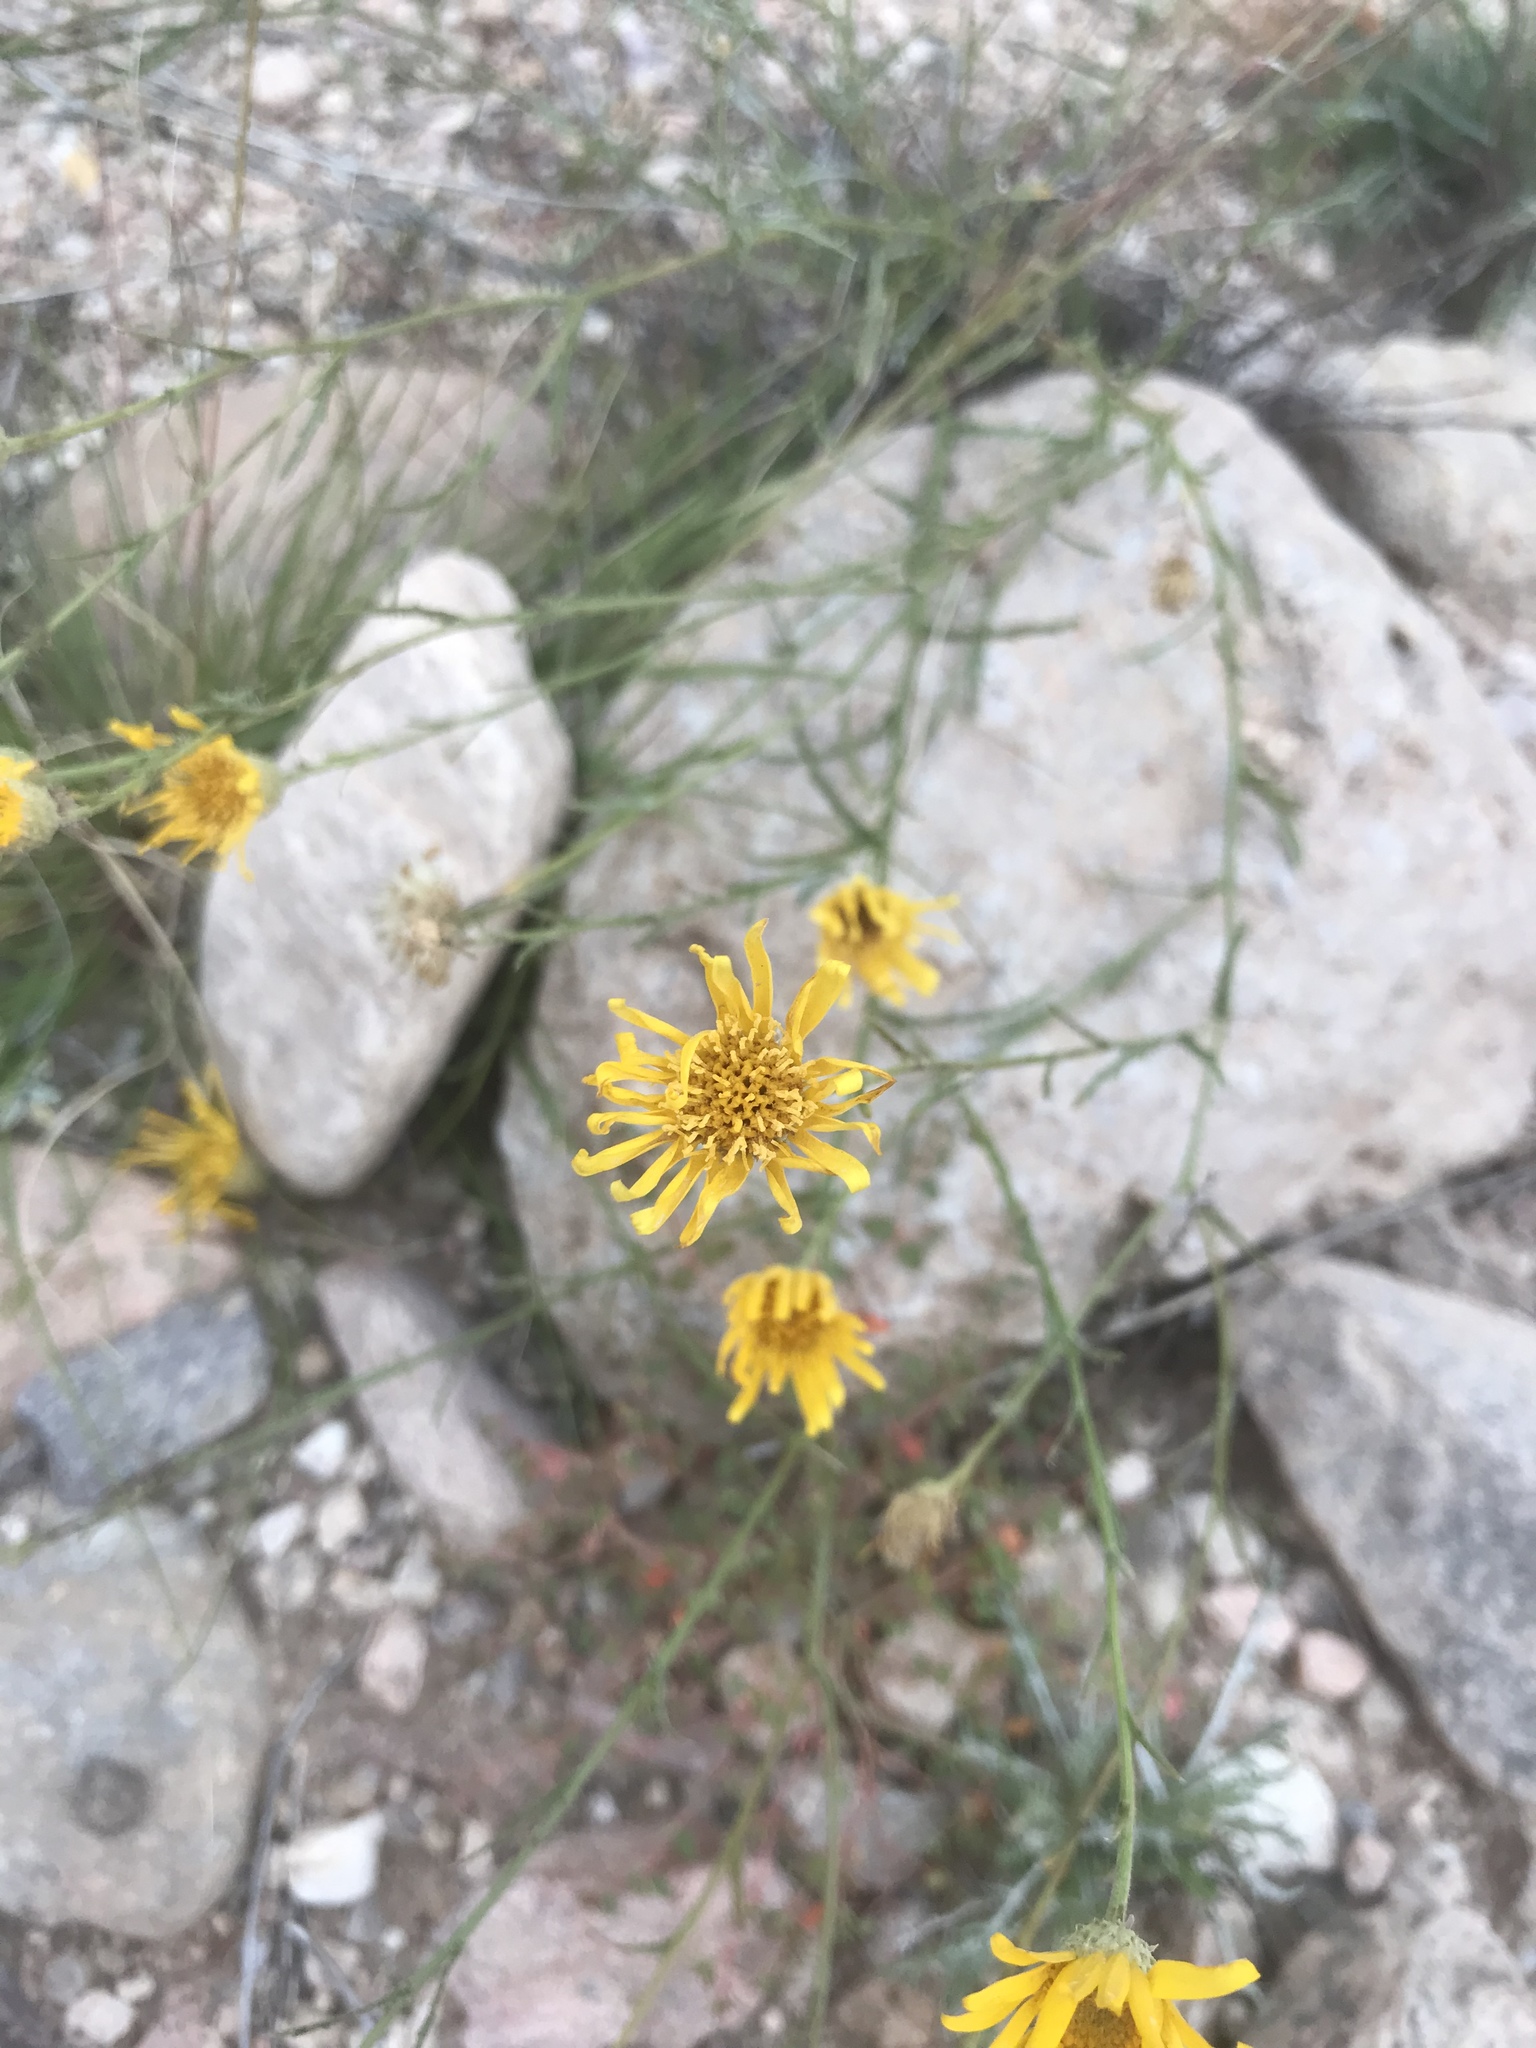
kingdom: Plantae
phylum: Tracheophyta
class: Magnoliopsida
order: Asterales
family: Asteraceae
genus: Xanthisma
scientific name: Xanthisma spinulosum
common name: Spiny goldenweed
